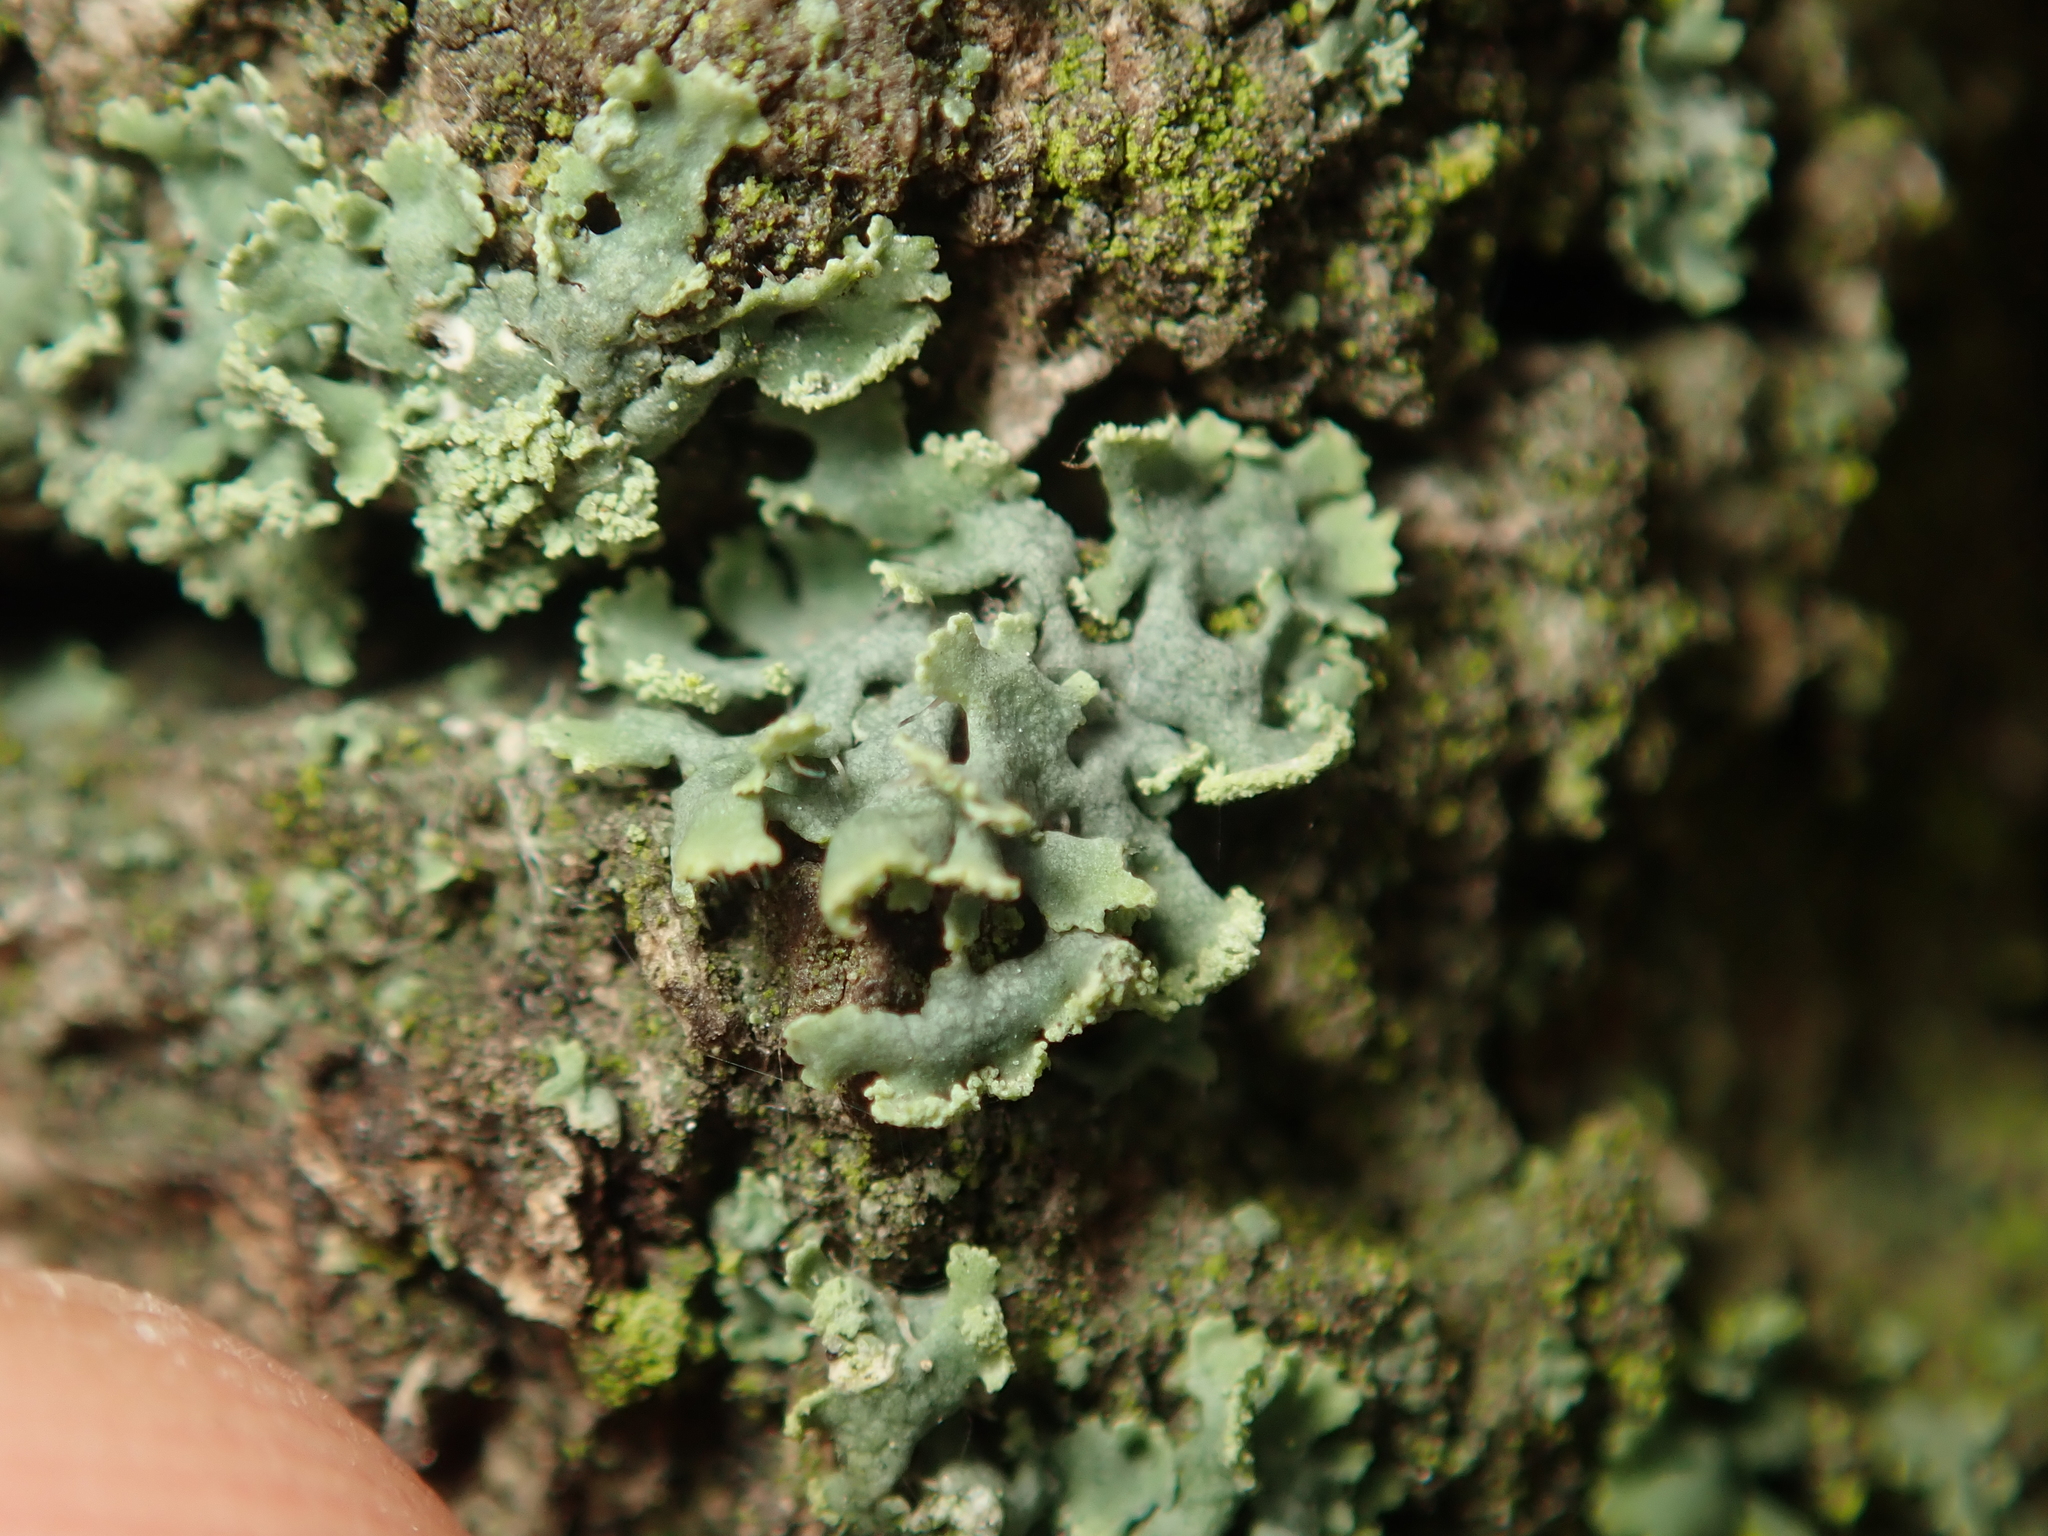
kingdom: Fungi
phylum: Ascomycota
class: Lecanoromycetes
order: Caliciales
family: Physciaceae
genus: Physcia
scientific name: Physcia tenella
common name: Fringed rosette lichen
